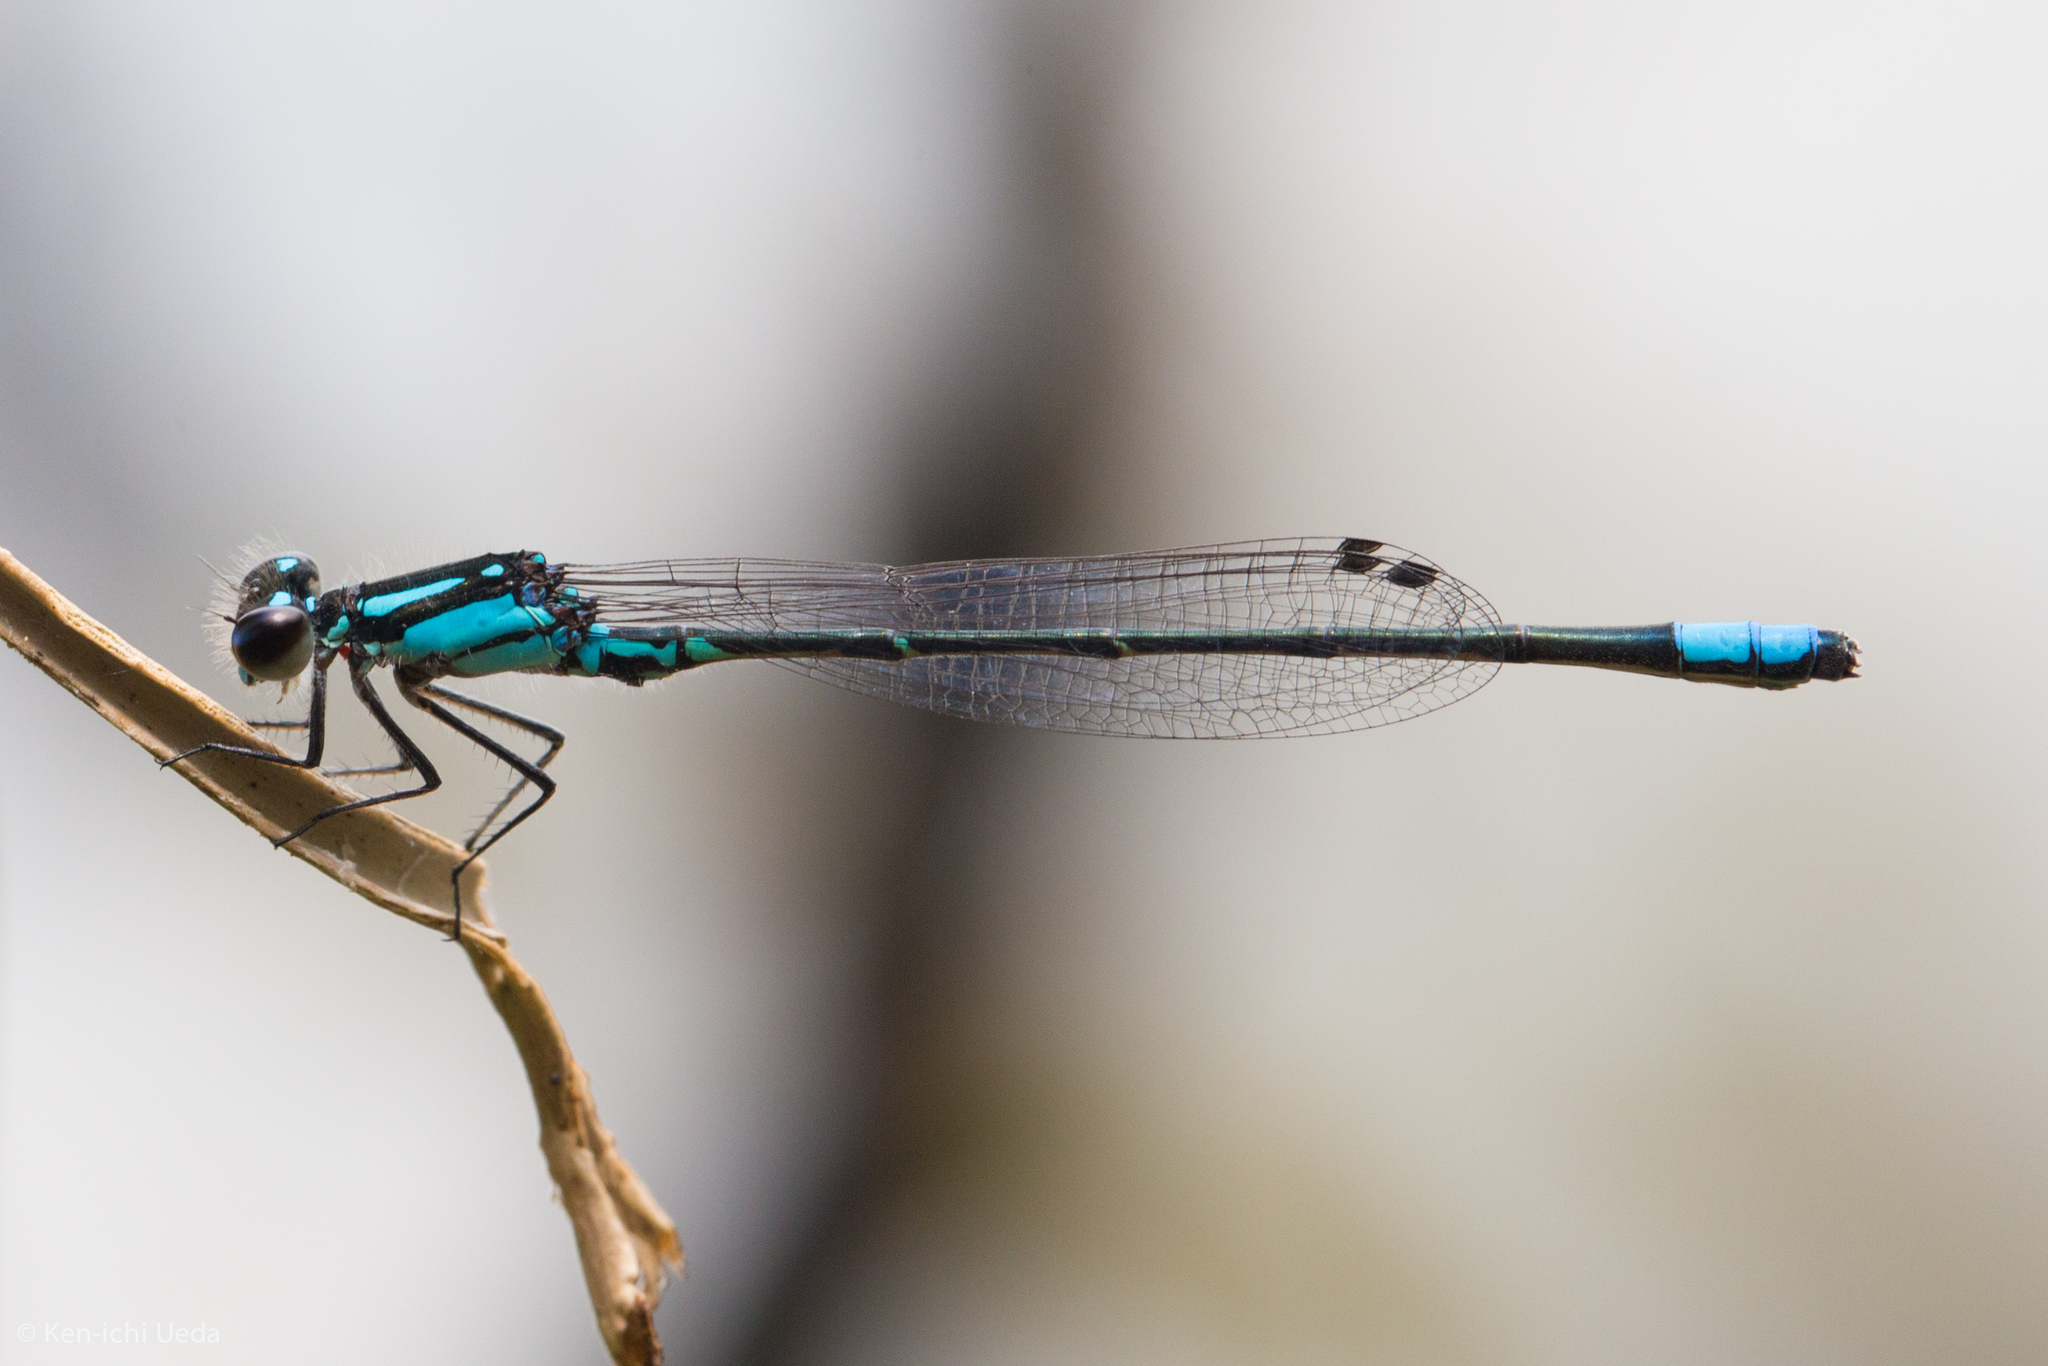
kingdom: Animalia
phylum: Arthropoda
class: Insecta
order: Odonata
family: Coenagrionidae
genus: Enallagma
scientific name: Enallagma geminatum
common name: Skimming bluet
